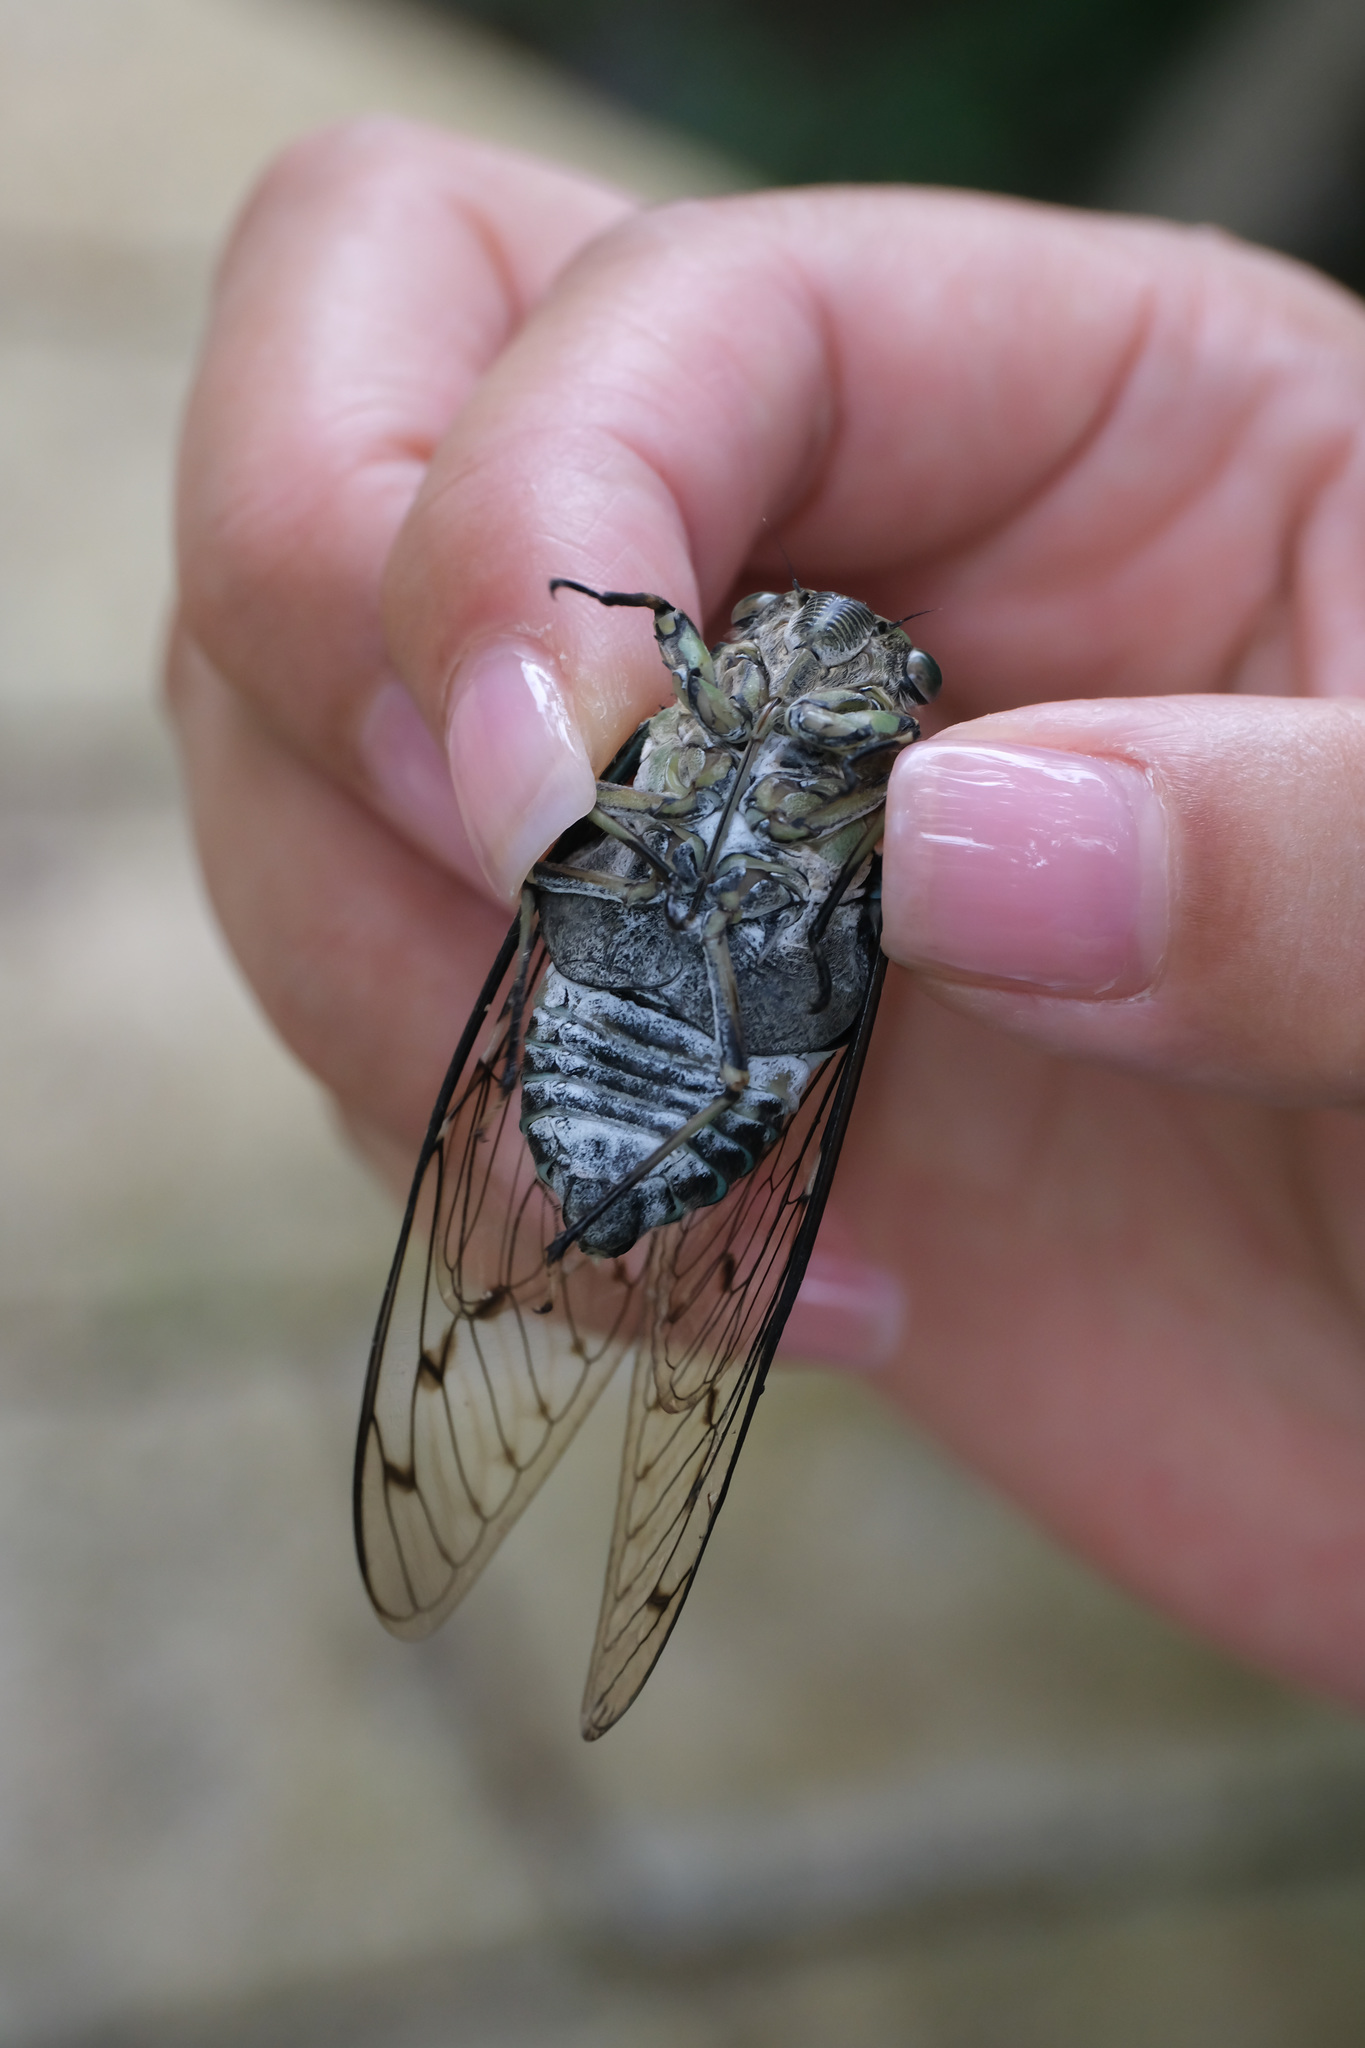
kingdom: Animalia
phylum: Arthropoda
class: Insecta
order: Hemiptera
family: Cicadidae
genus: Hyalessa
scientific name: Hyalessa maculaticollis
